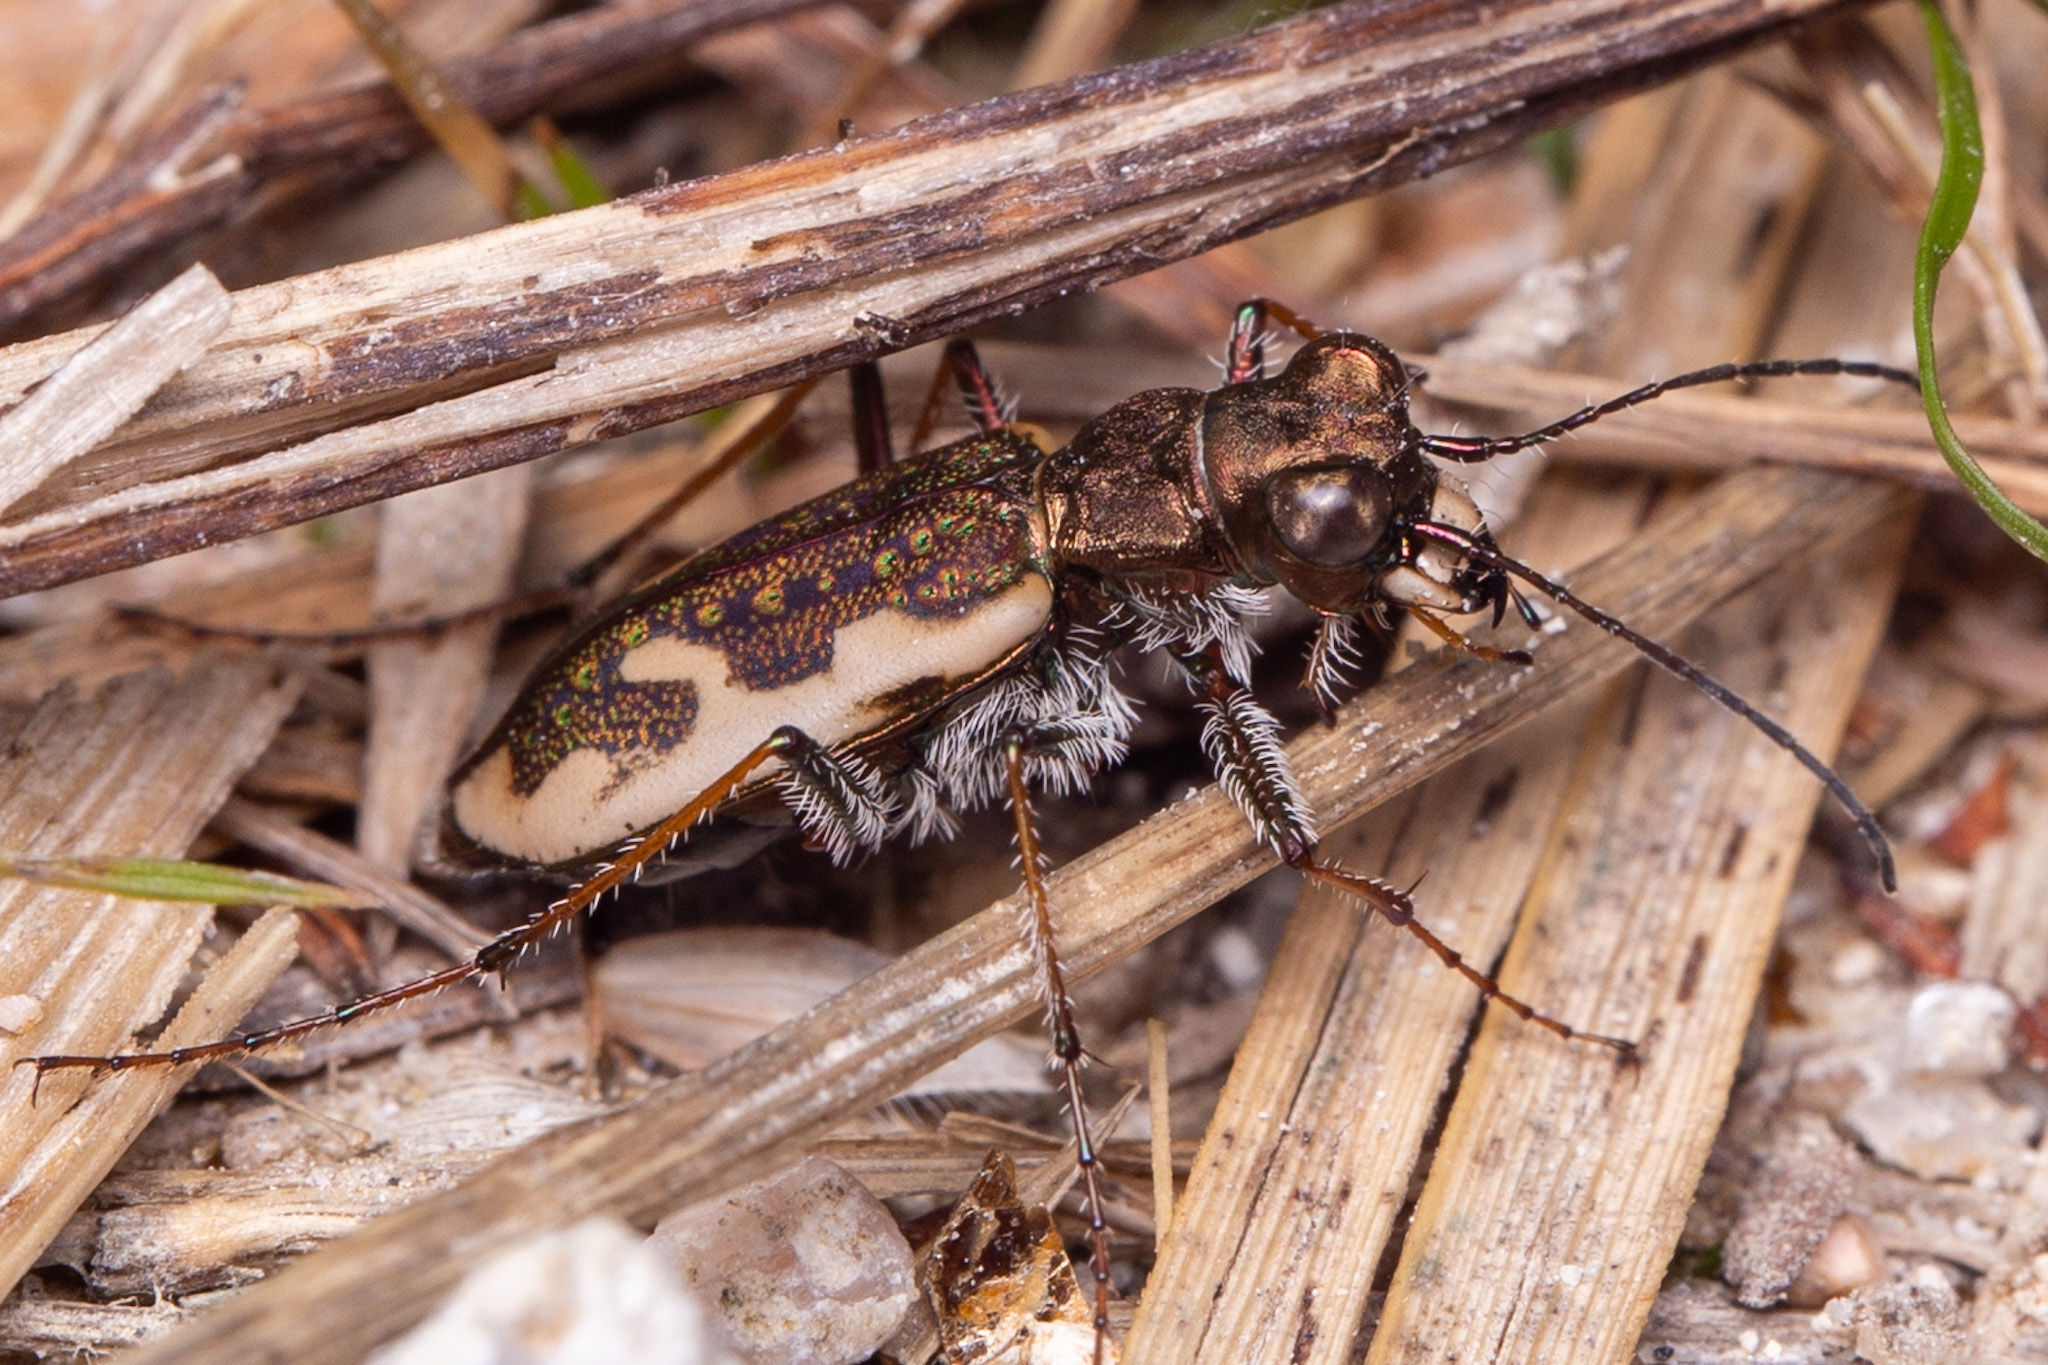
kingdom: Animalia
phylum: Arthropoda
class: Insecta
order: Coleoptera
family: Carabidae
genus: Neocicindela
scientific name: Neocicindela tuberculata
